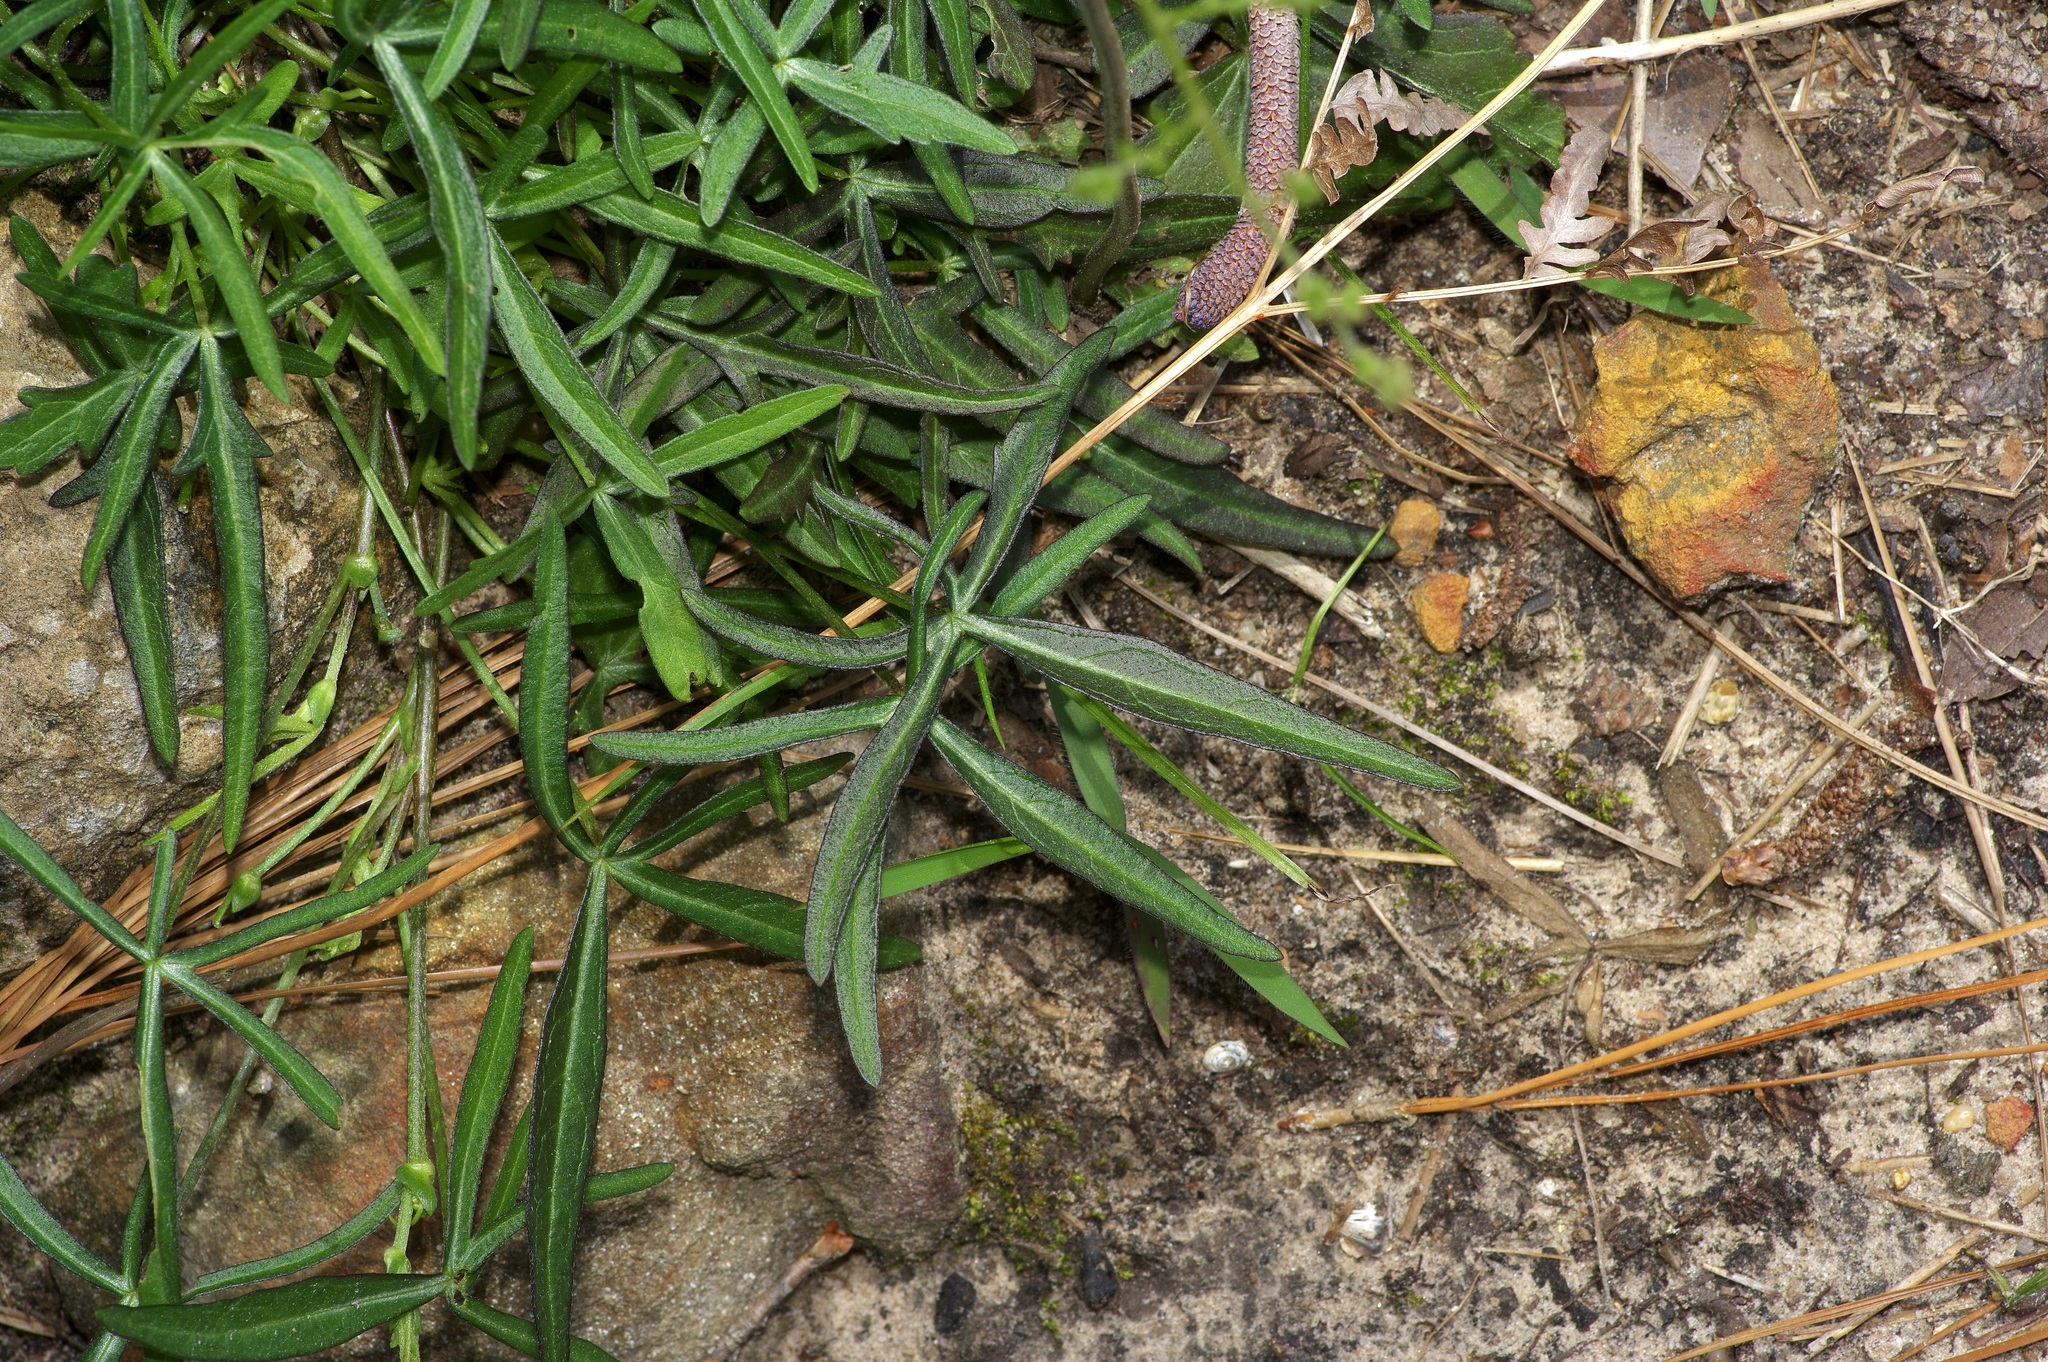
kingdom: Plantae
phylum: Tracheophyta
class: Magnoliopsida
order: Malvales
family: Malvaceae
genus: Callirhoe
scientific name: Callirhoe papaver
